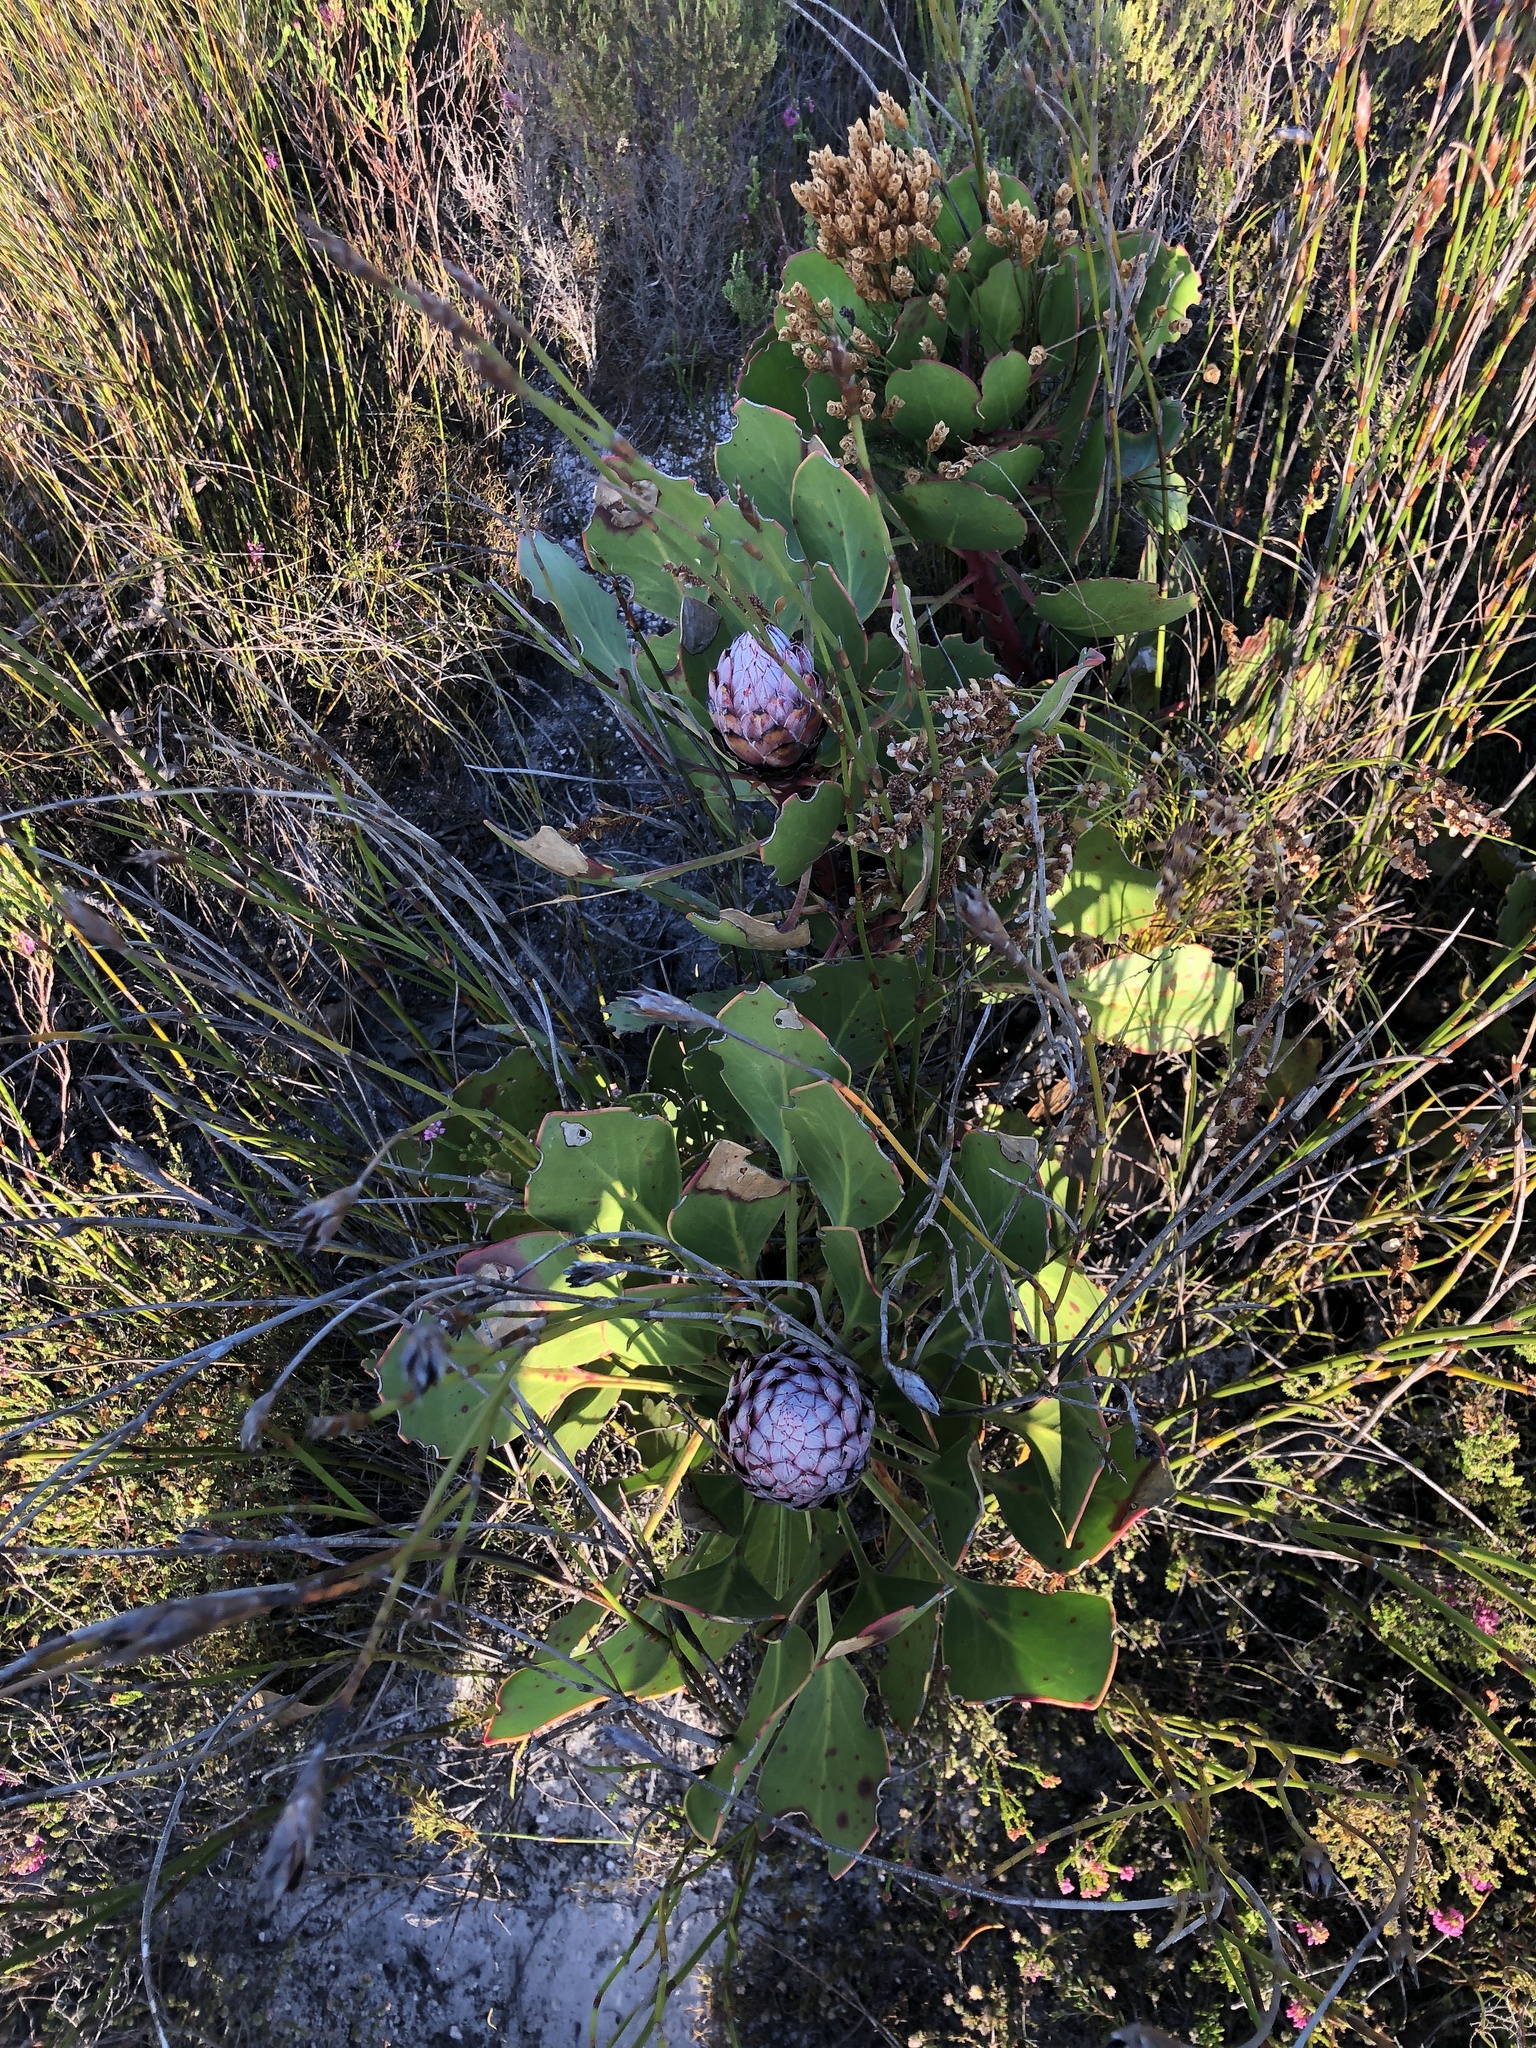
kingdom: Plantae
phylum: Tracheophyta
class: Magnoliopsida
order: Proteales
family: Proteaceae
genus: Protea
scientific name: Protea cynaroides
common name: King protea
